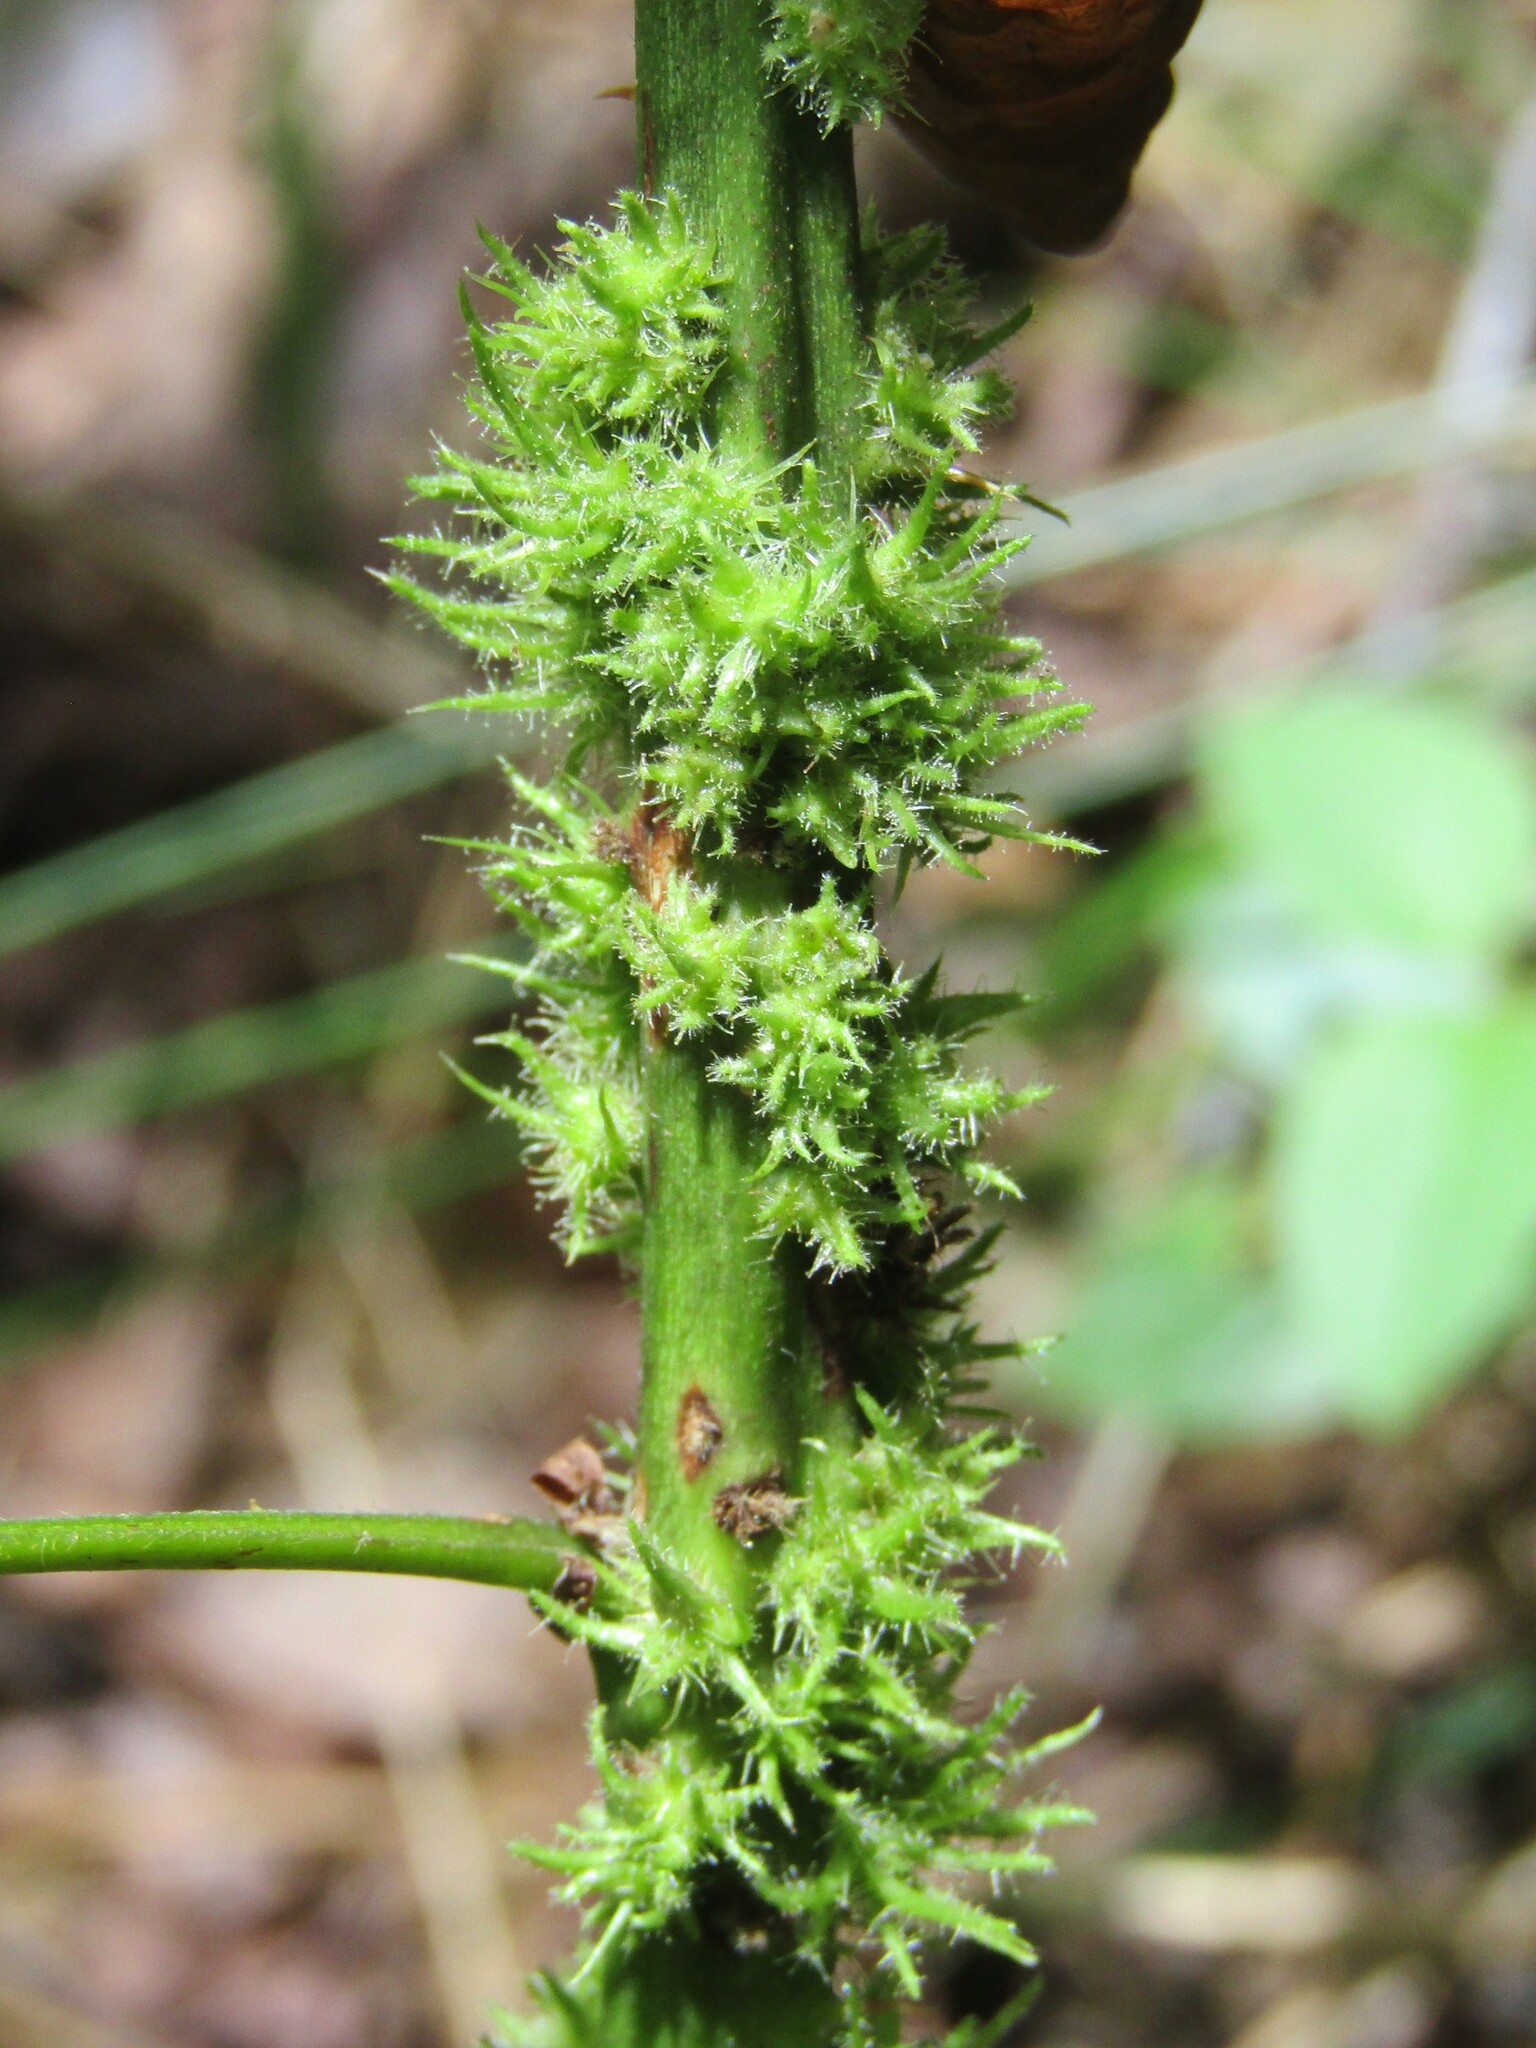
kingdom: Animalia
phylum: Arthropoda
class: Insecta
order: Hymenoptera
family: Cynipidae
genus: Diastrophus
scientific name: Diastrophus
